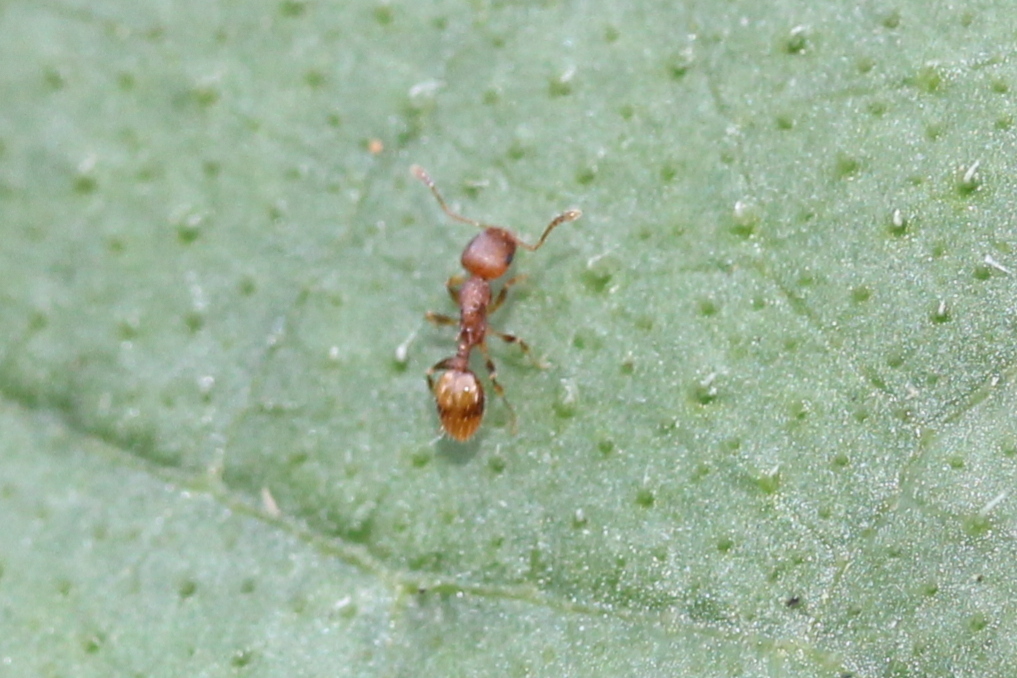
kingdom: Animalia
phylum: Arthropoda
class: Insecta
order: Hymenoptera
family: Formicidae
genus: Temnothorax
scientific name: Temnothorax curvispinosus
